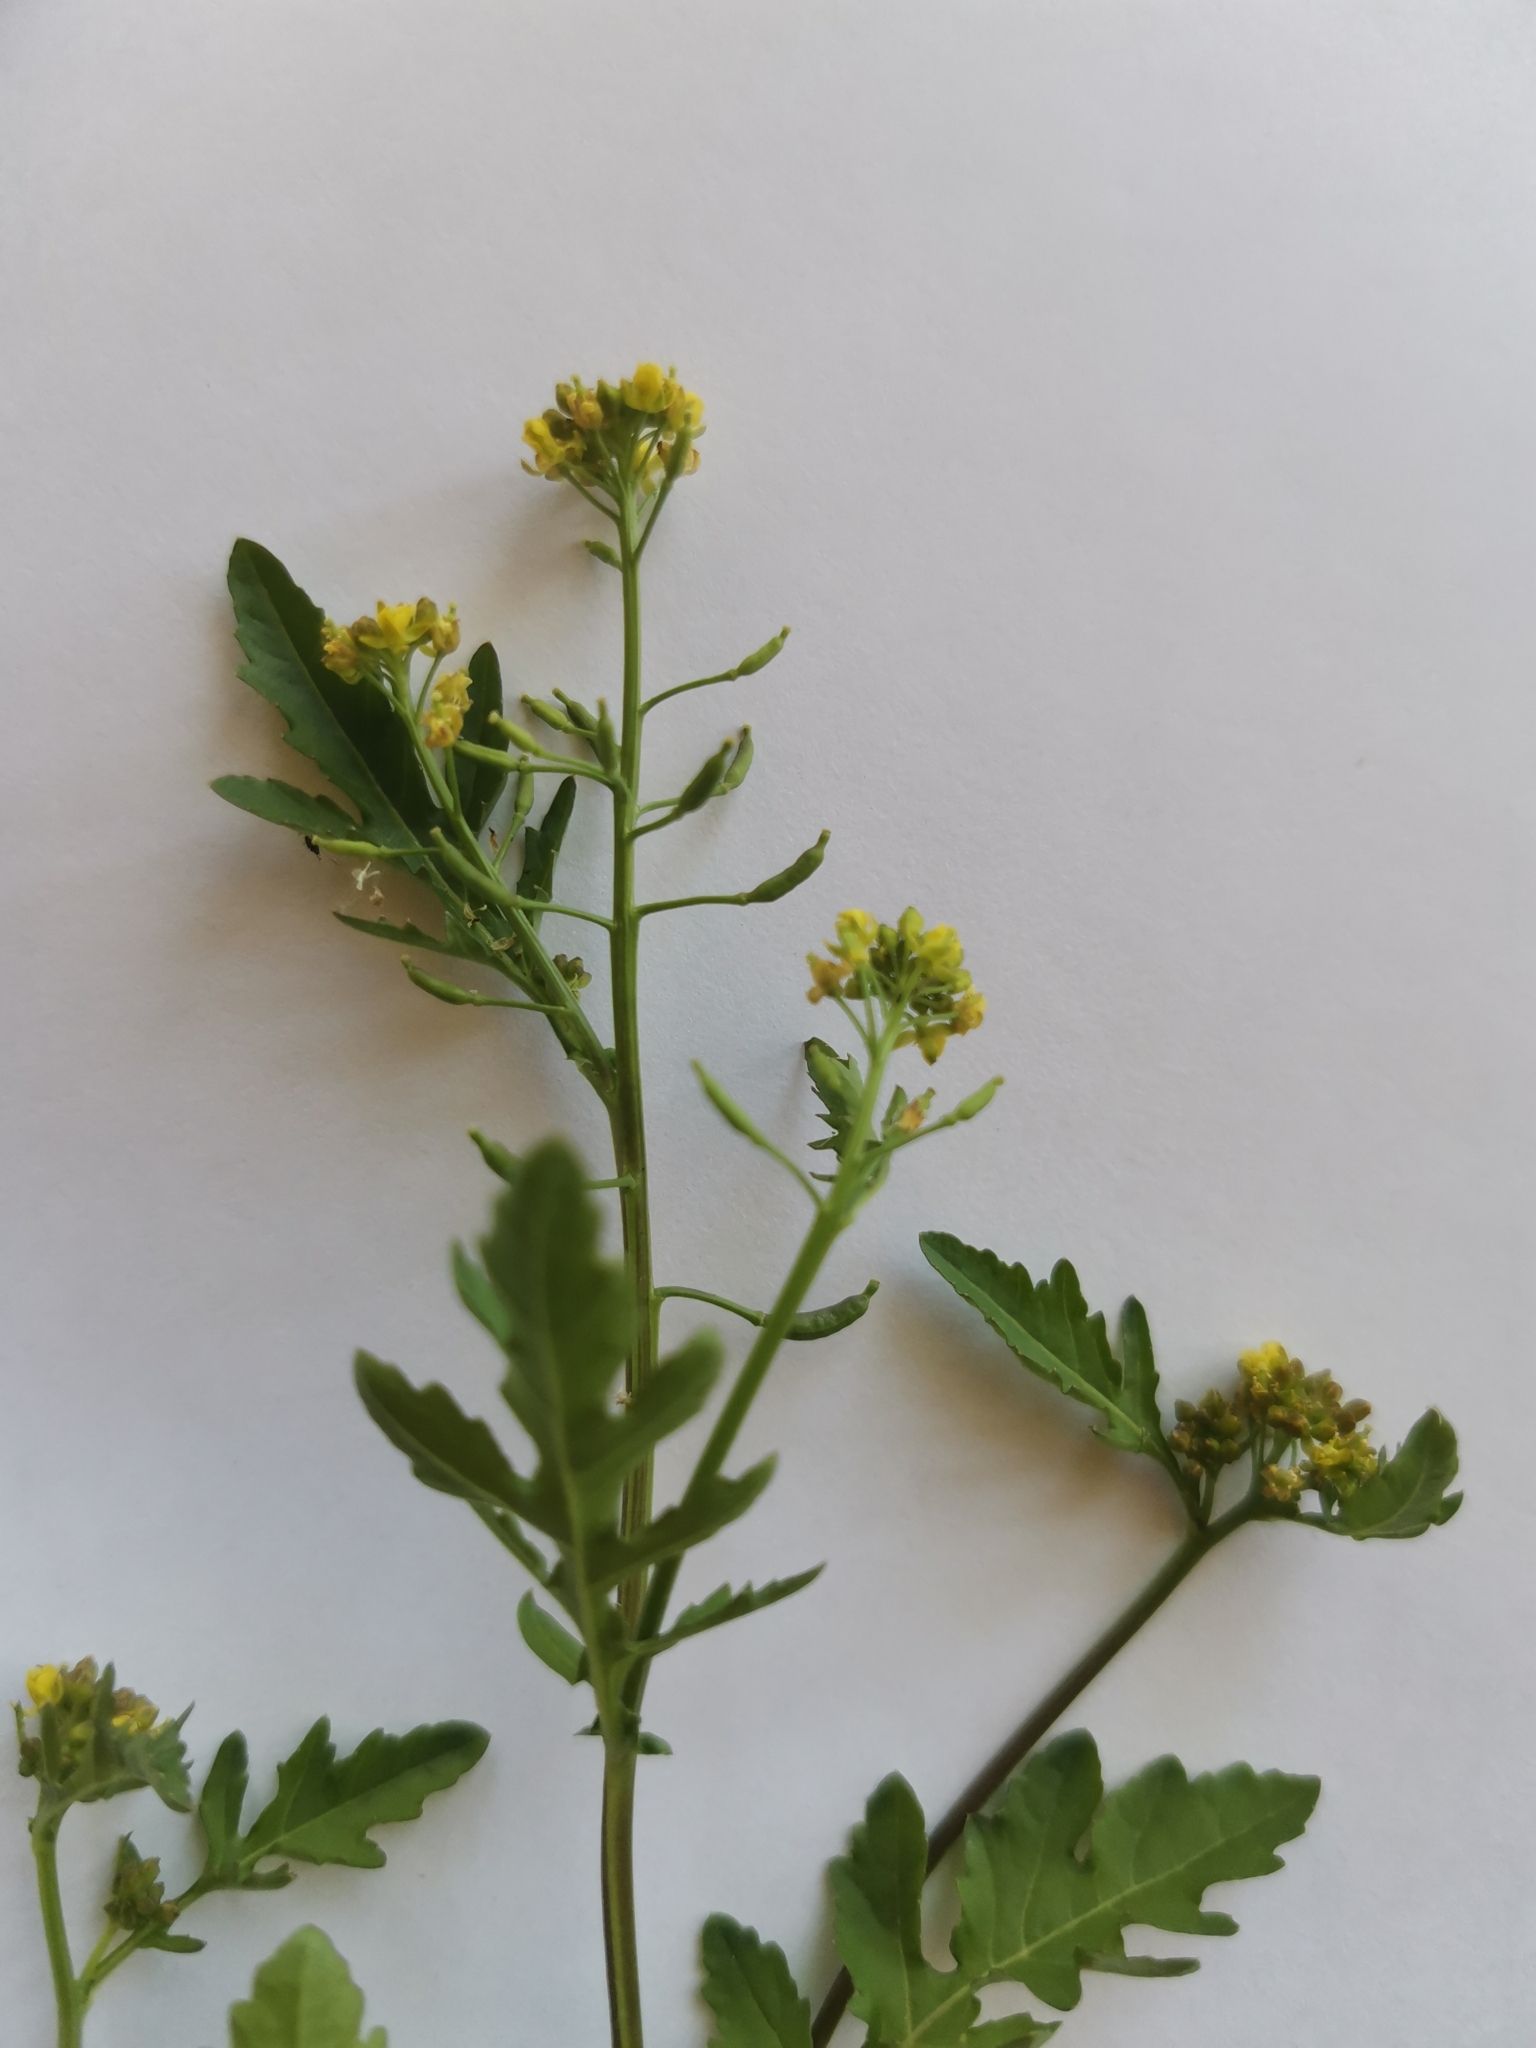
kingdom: Plantae
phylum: Tracheophyta
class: Magnoliopsida
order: Brassicales
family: Brassicaceae
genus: Rorippa
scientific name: Rorippa palustris
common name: Marsh yellow-cress
